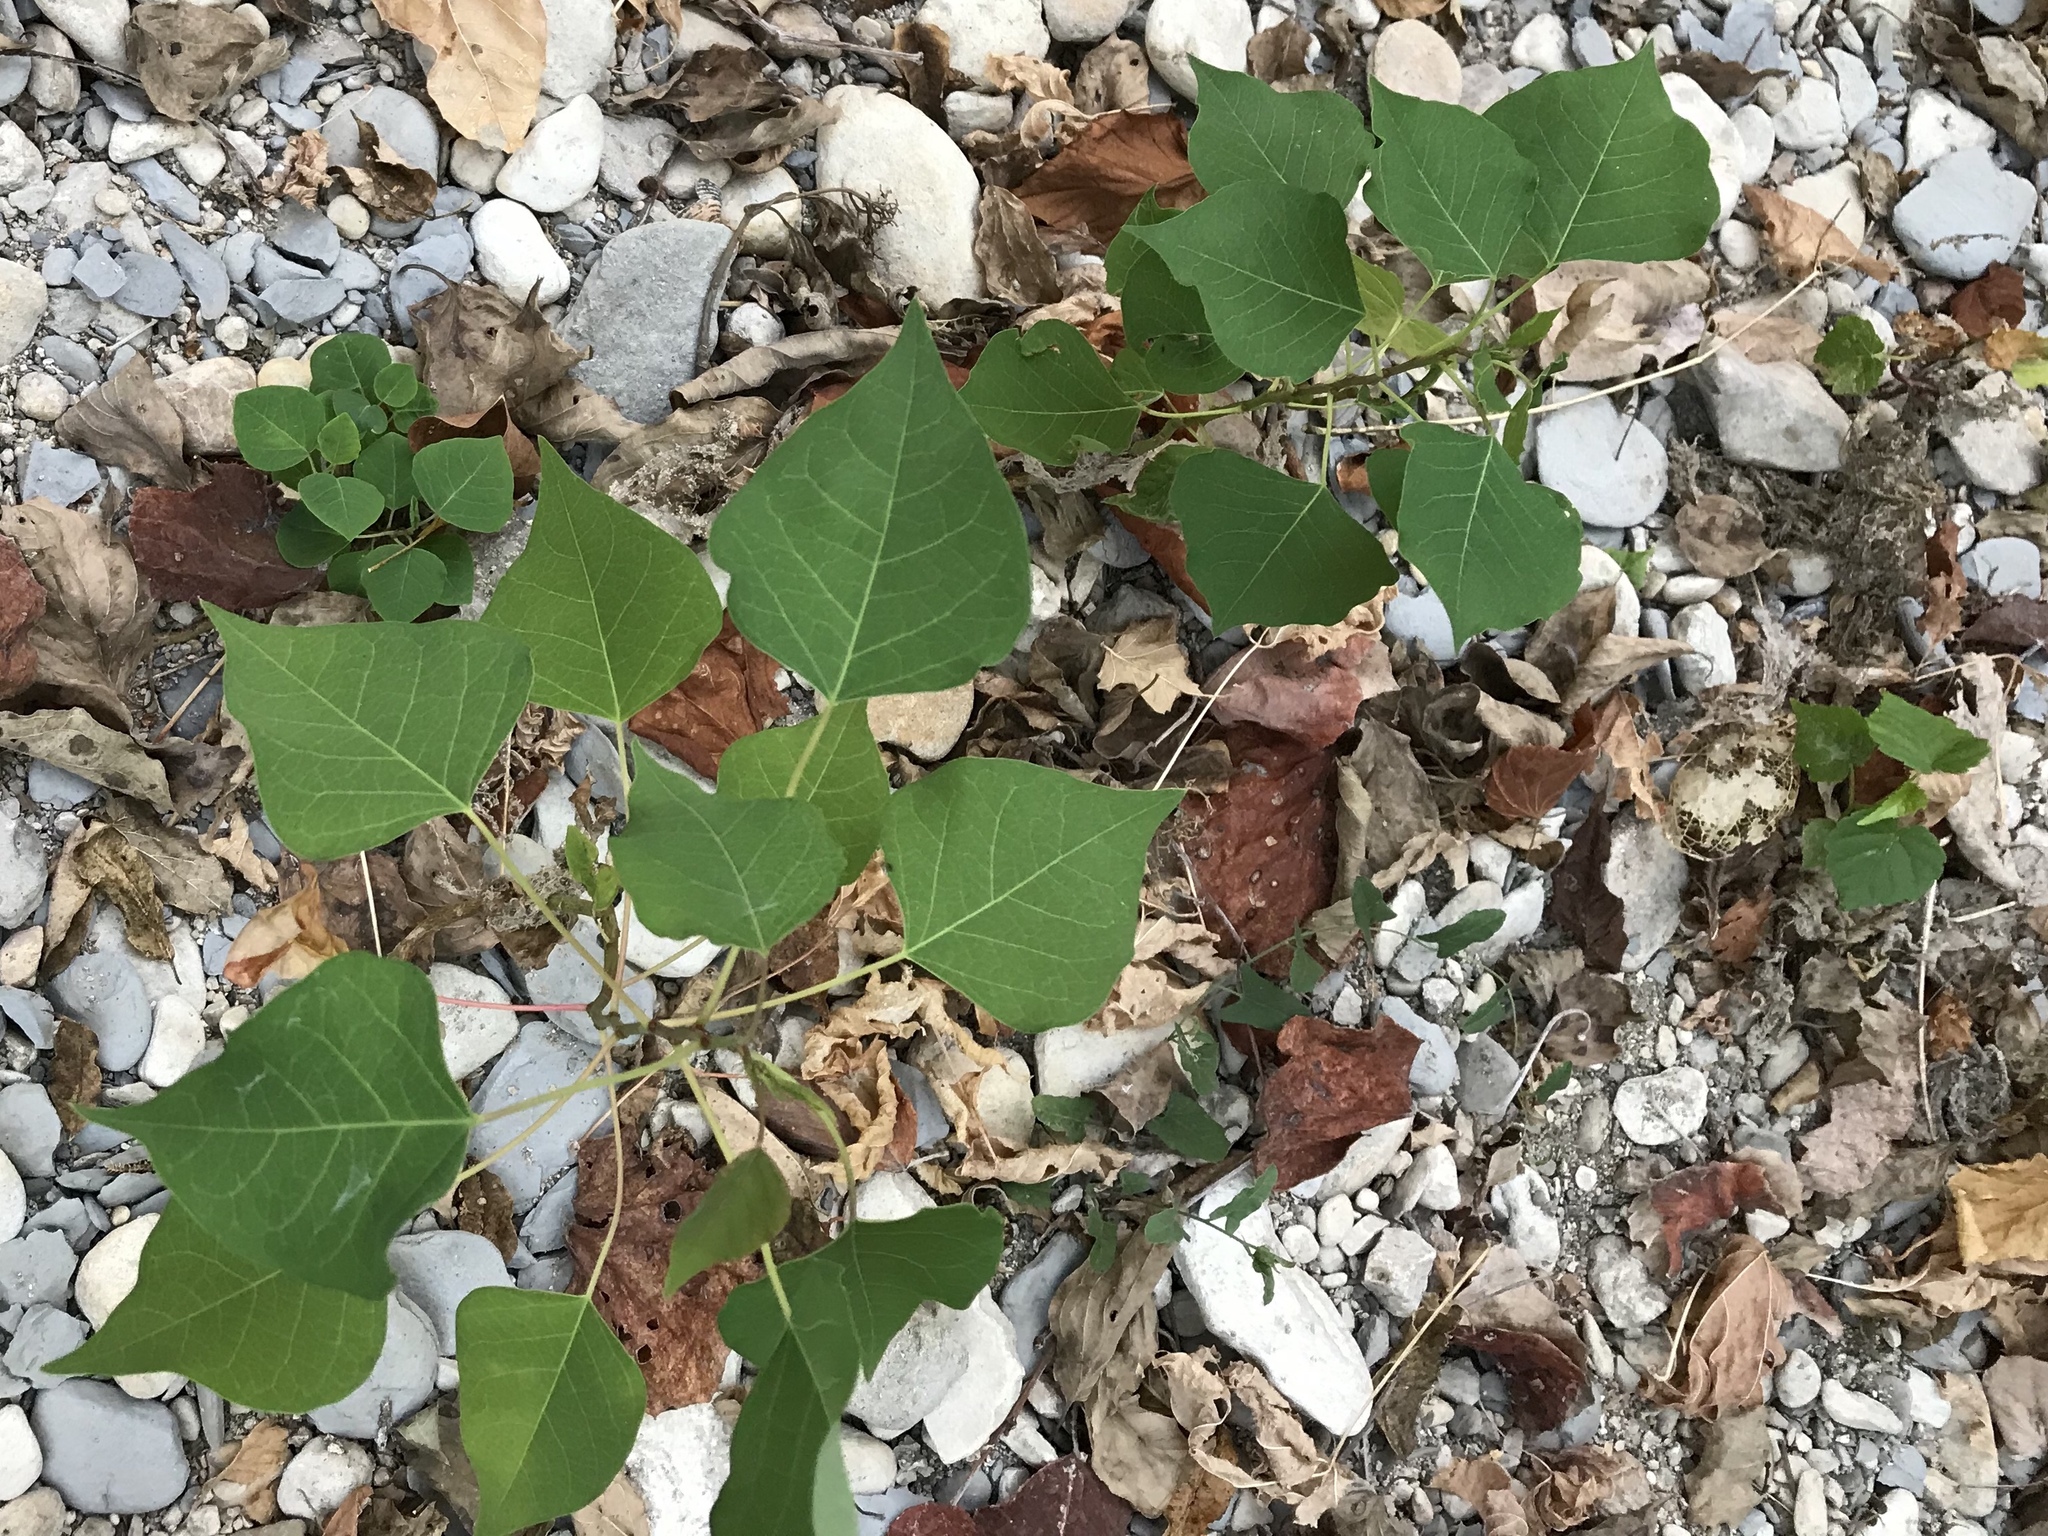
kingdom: Plantae
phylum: Tracheophyta
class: Magnoliopsida
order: Malpighiales
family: Euphorbiaceae
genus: Triadica
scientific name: Triadica sebifera
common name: Chinese tallow
